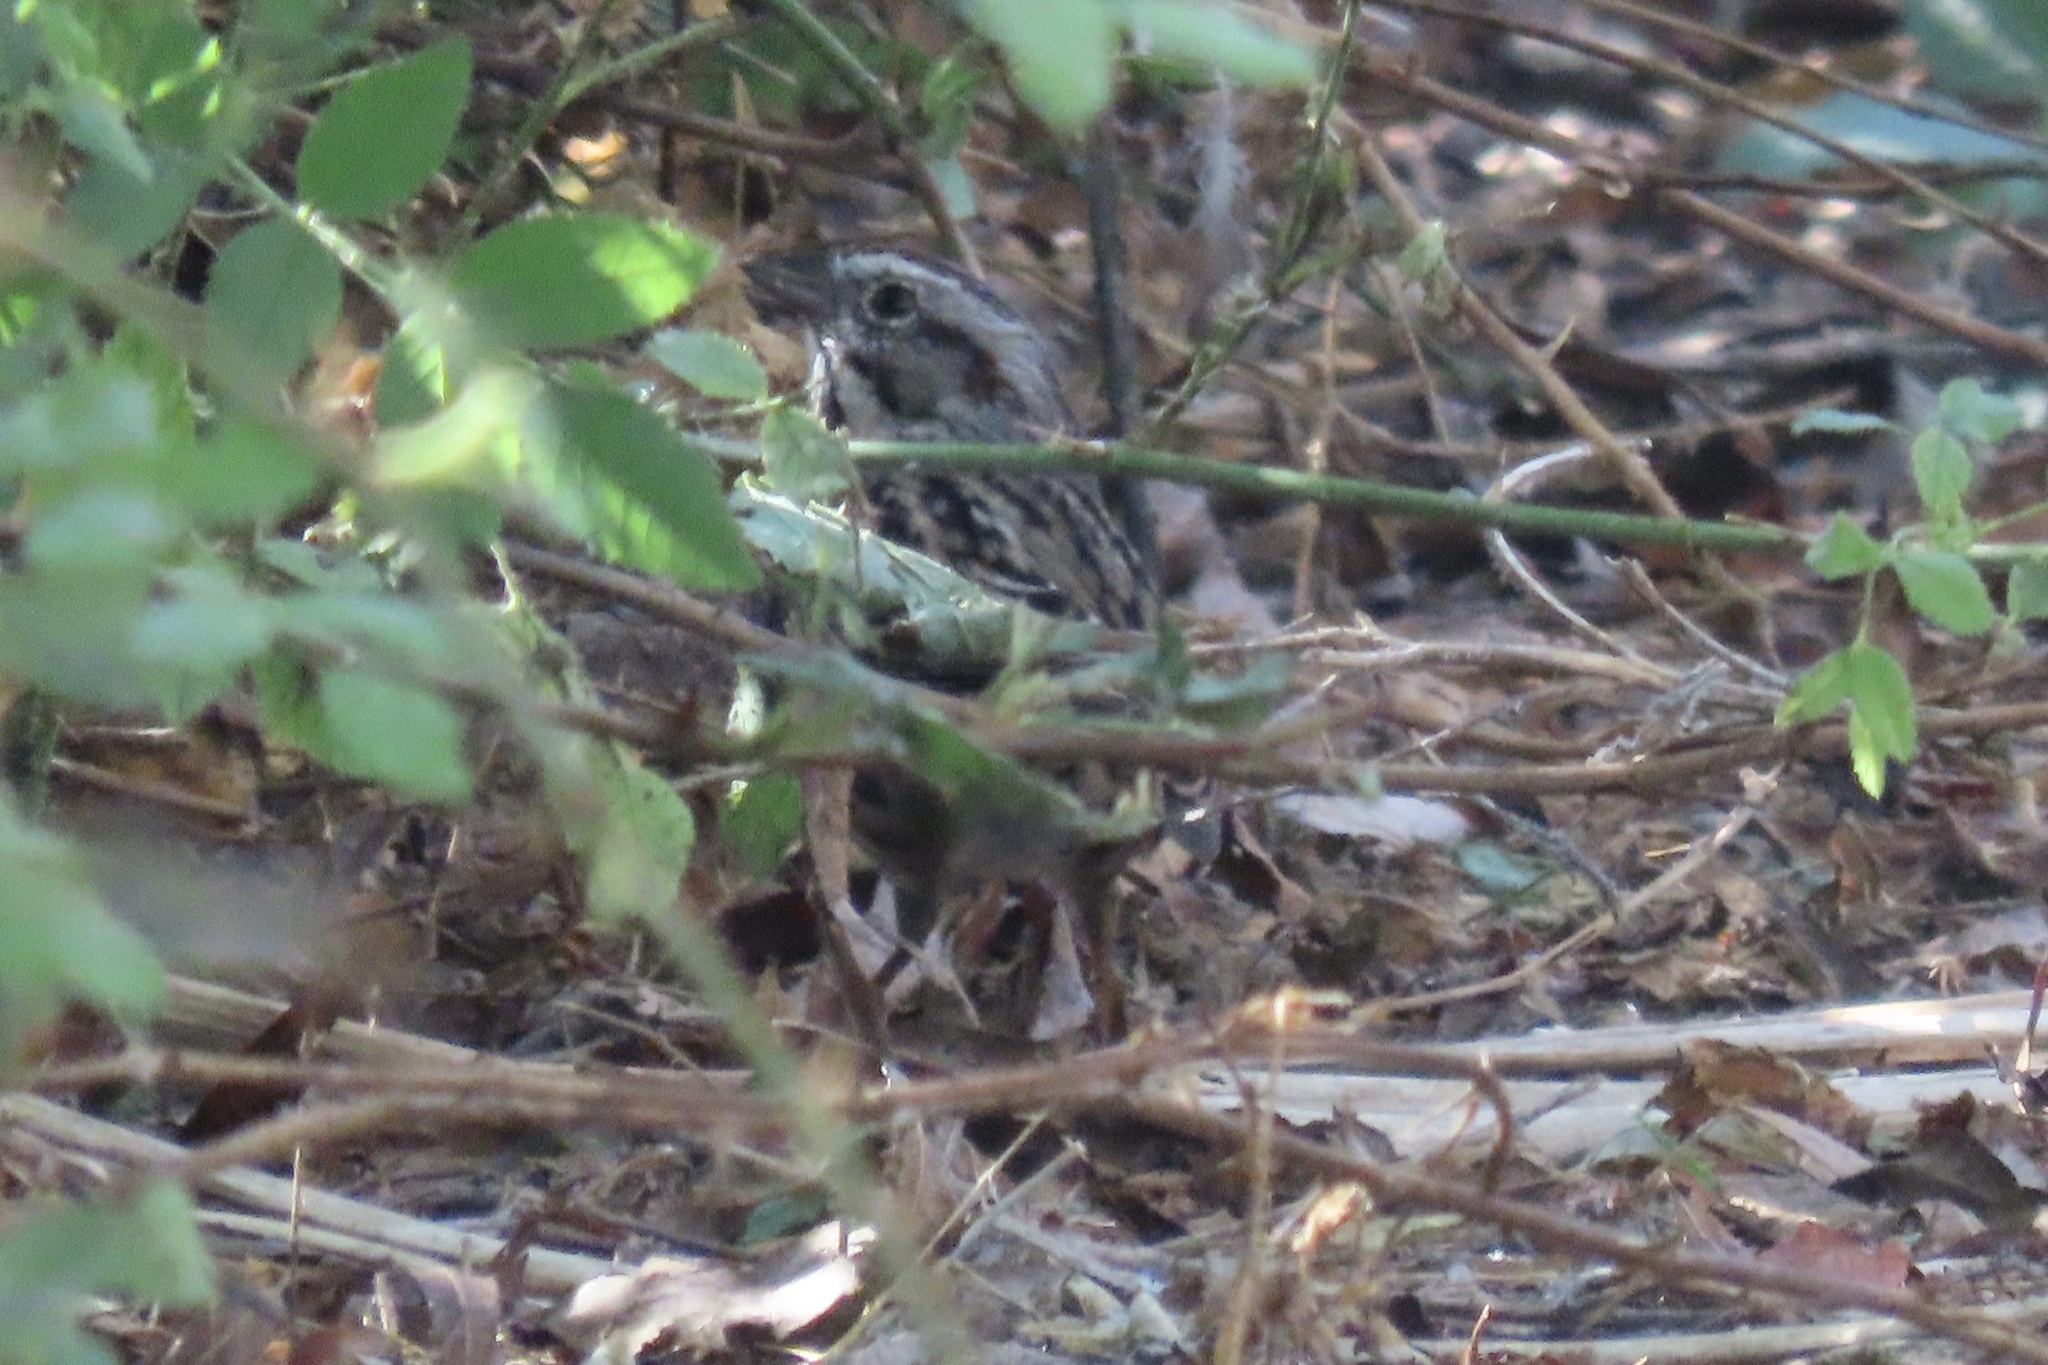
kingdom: Animalia
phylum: Chordata
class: Aves
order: Passeriformes
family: Passerellidae
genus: Melospiza
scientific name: Melospiza melodia
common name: Song sparrow
